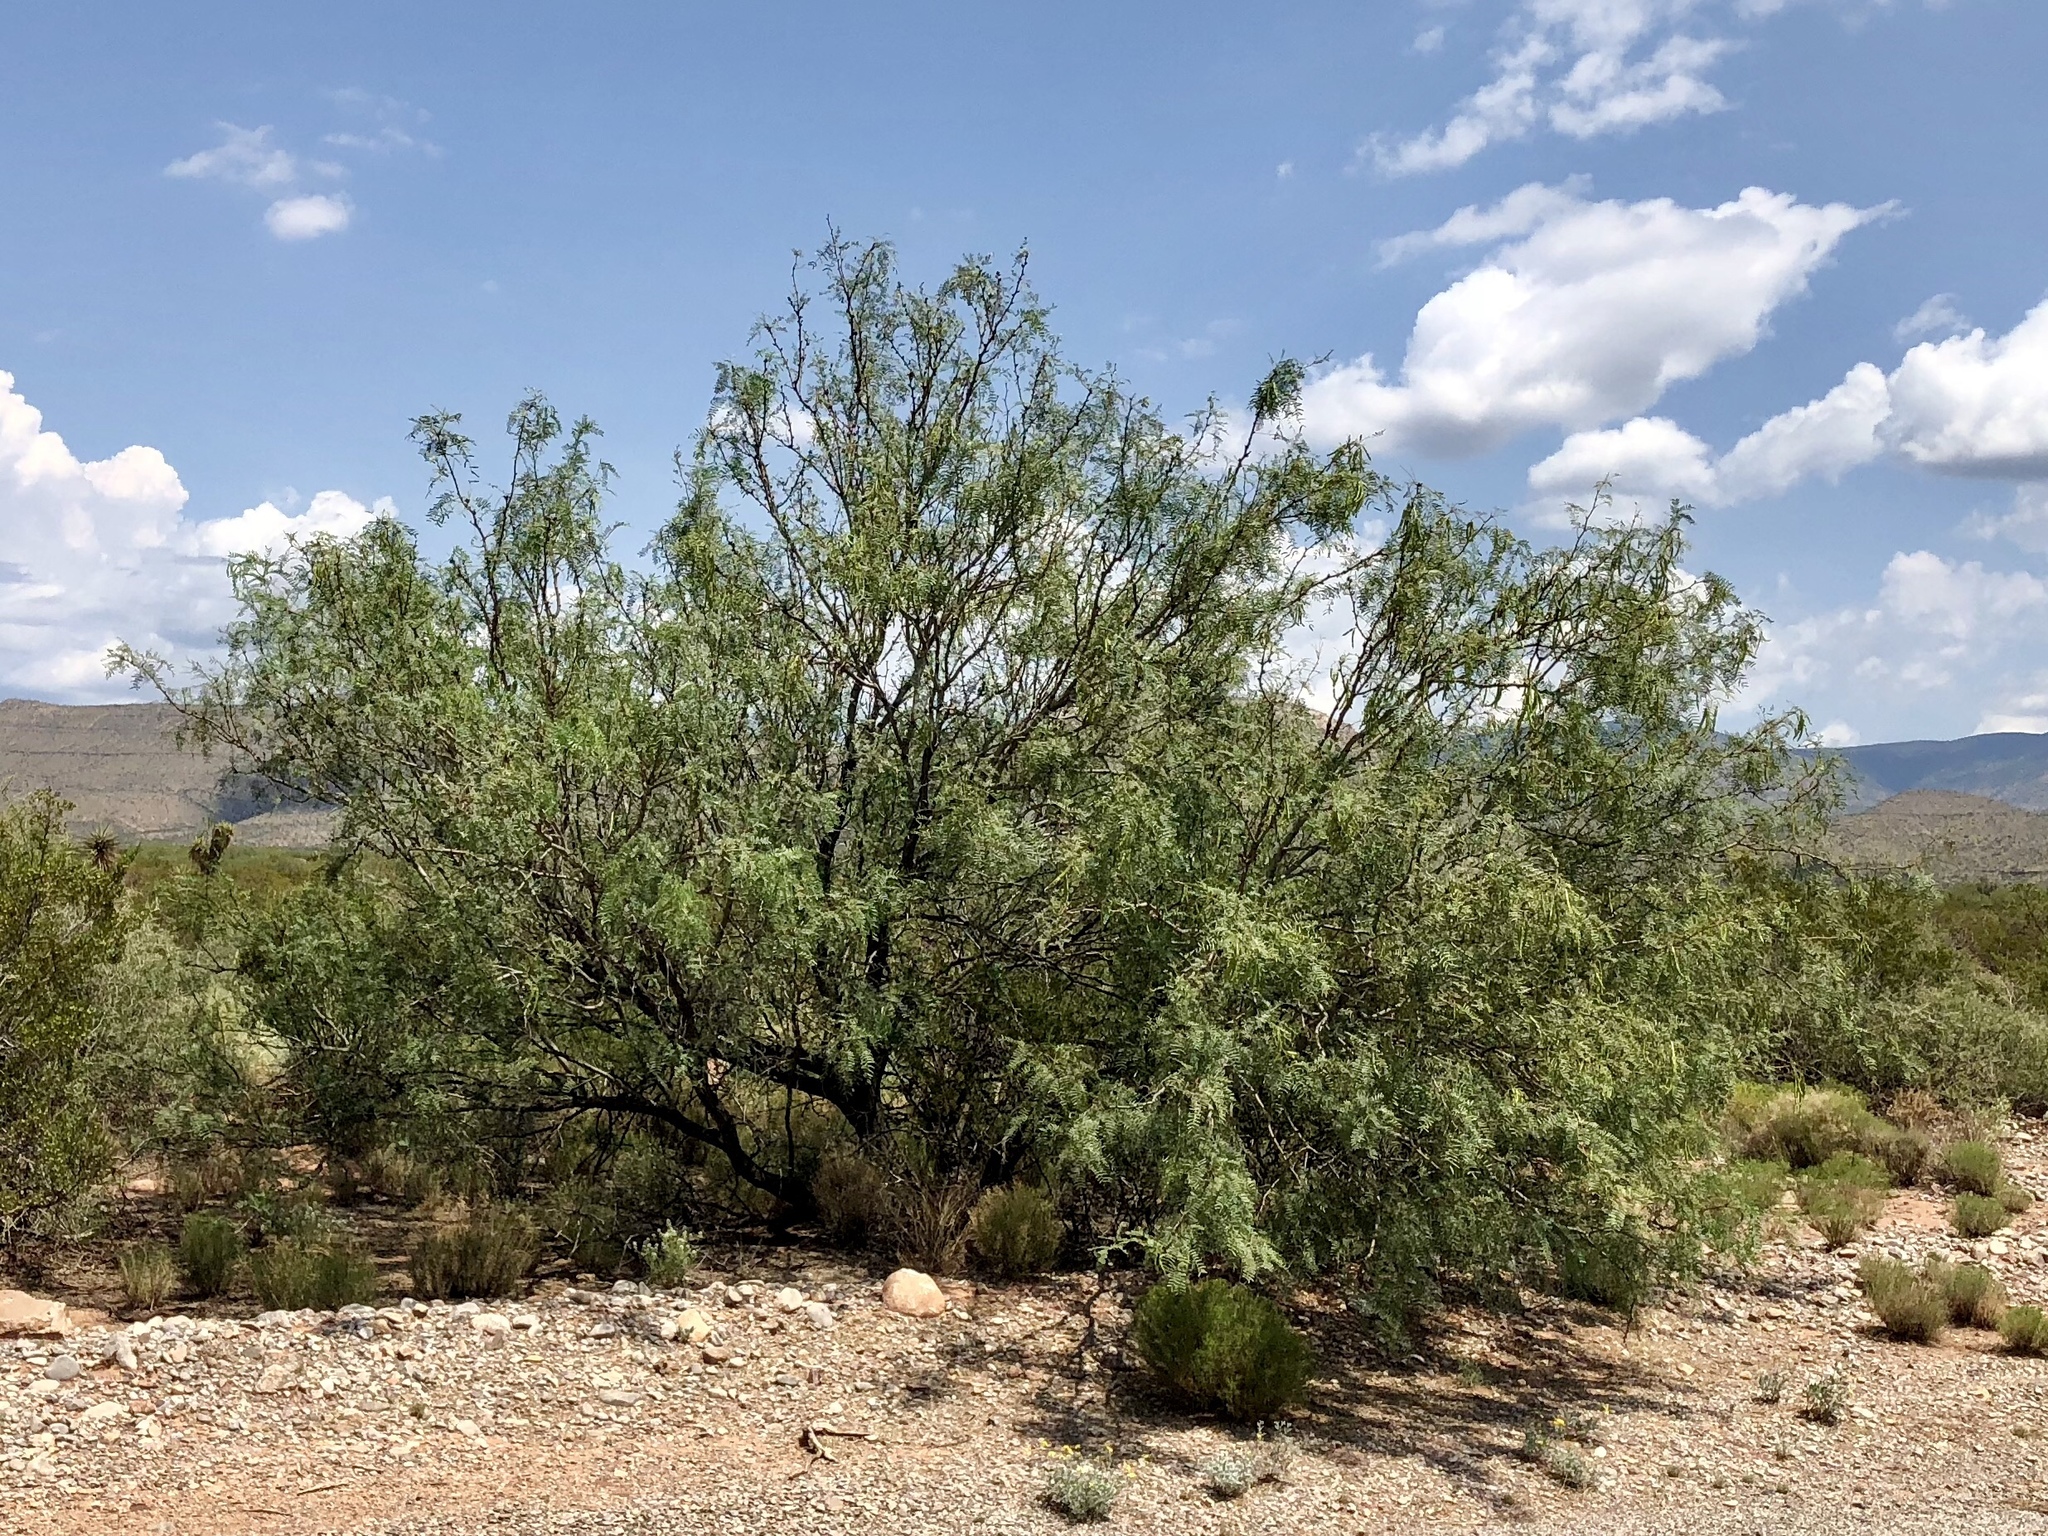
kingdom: Plantae
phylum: Tracheophyta
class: Magnoliopsida
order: Fabales
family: Fabaceae
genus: Prosopis
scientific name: Prosopis glandulosa
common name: Honey mesquite
